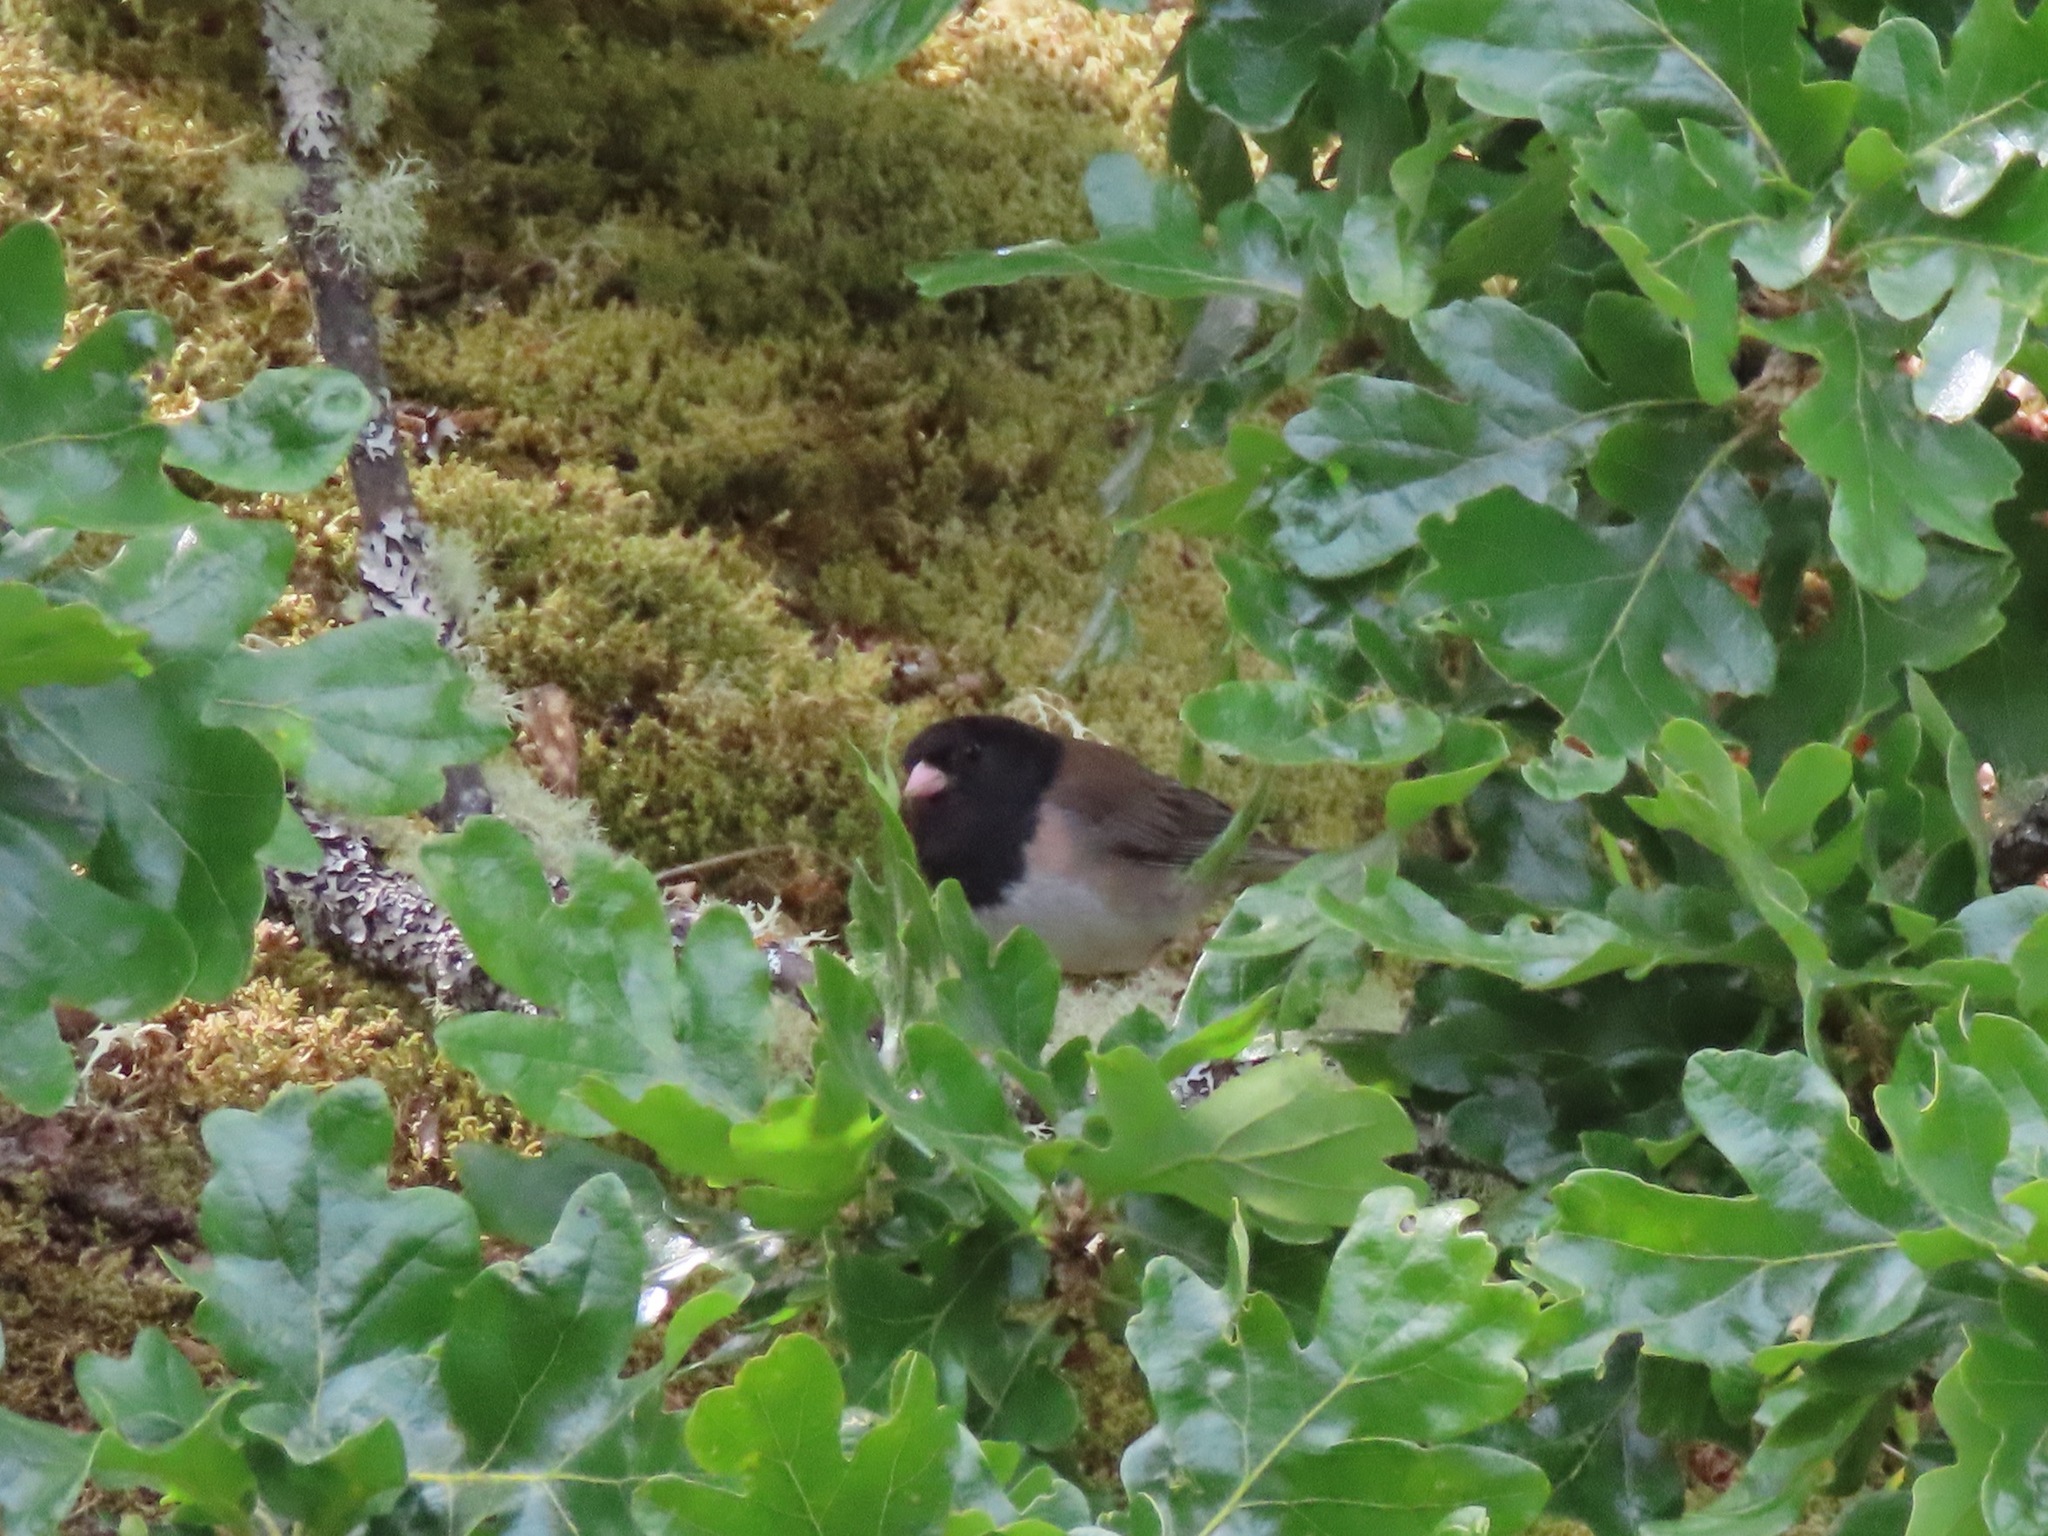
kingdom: Animalia
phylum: Chordata
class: Aves
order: Passeriformes
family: Passerellidae
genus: Junco
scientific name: Junco hyemalis
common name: Dark-eyed junco
